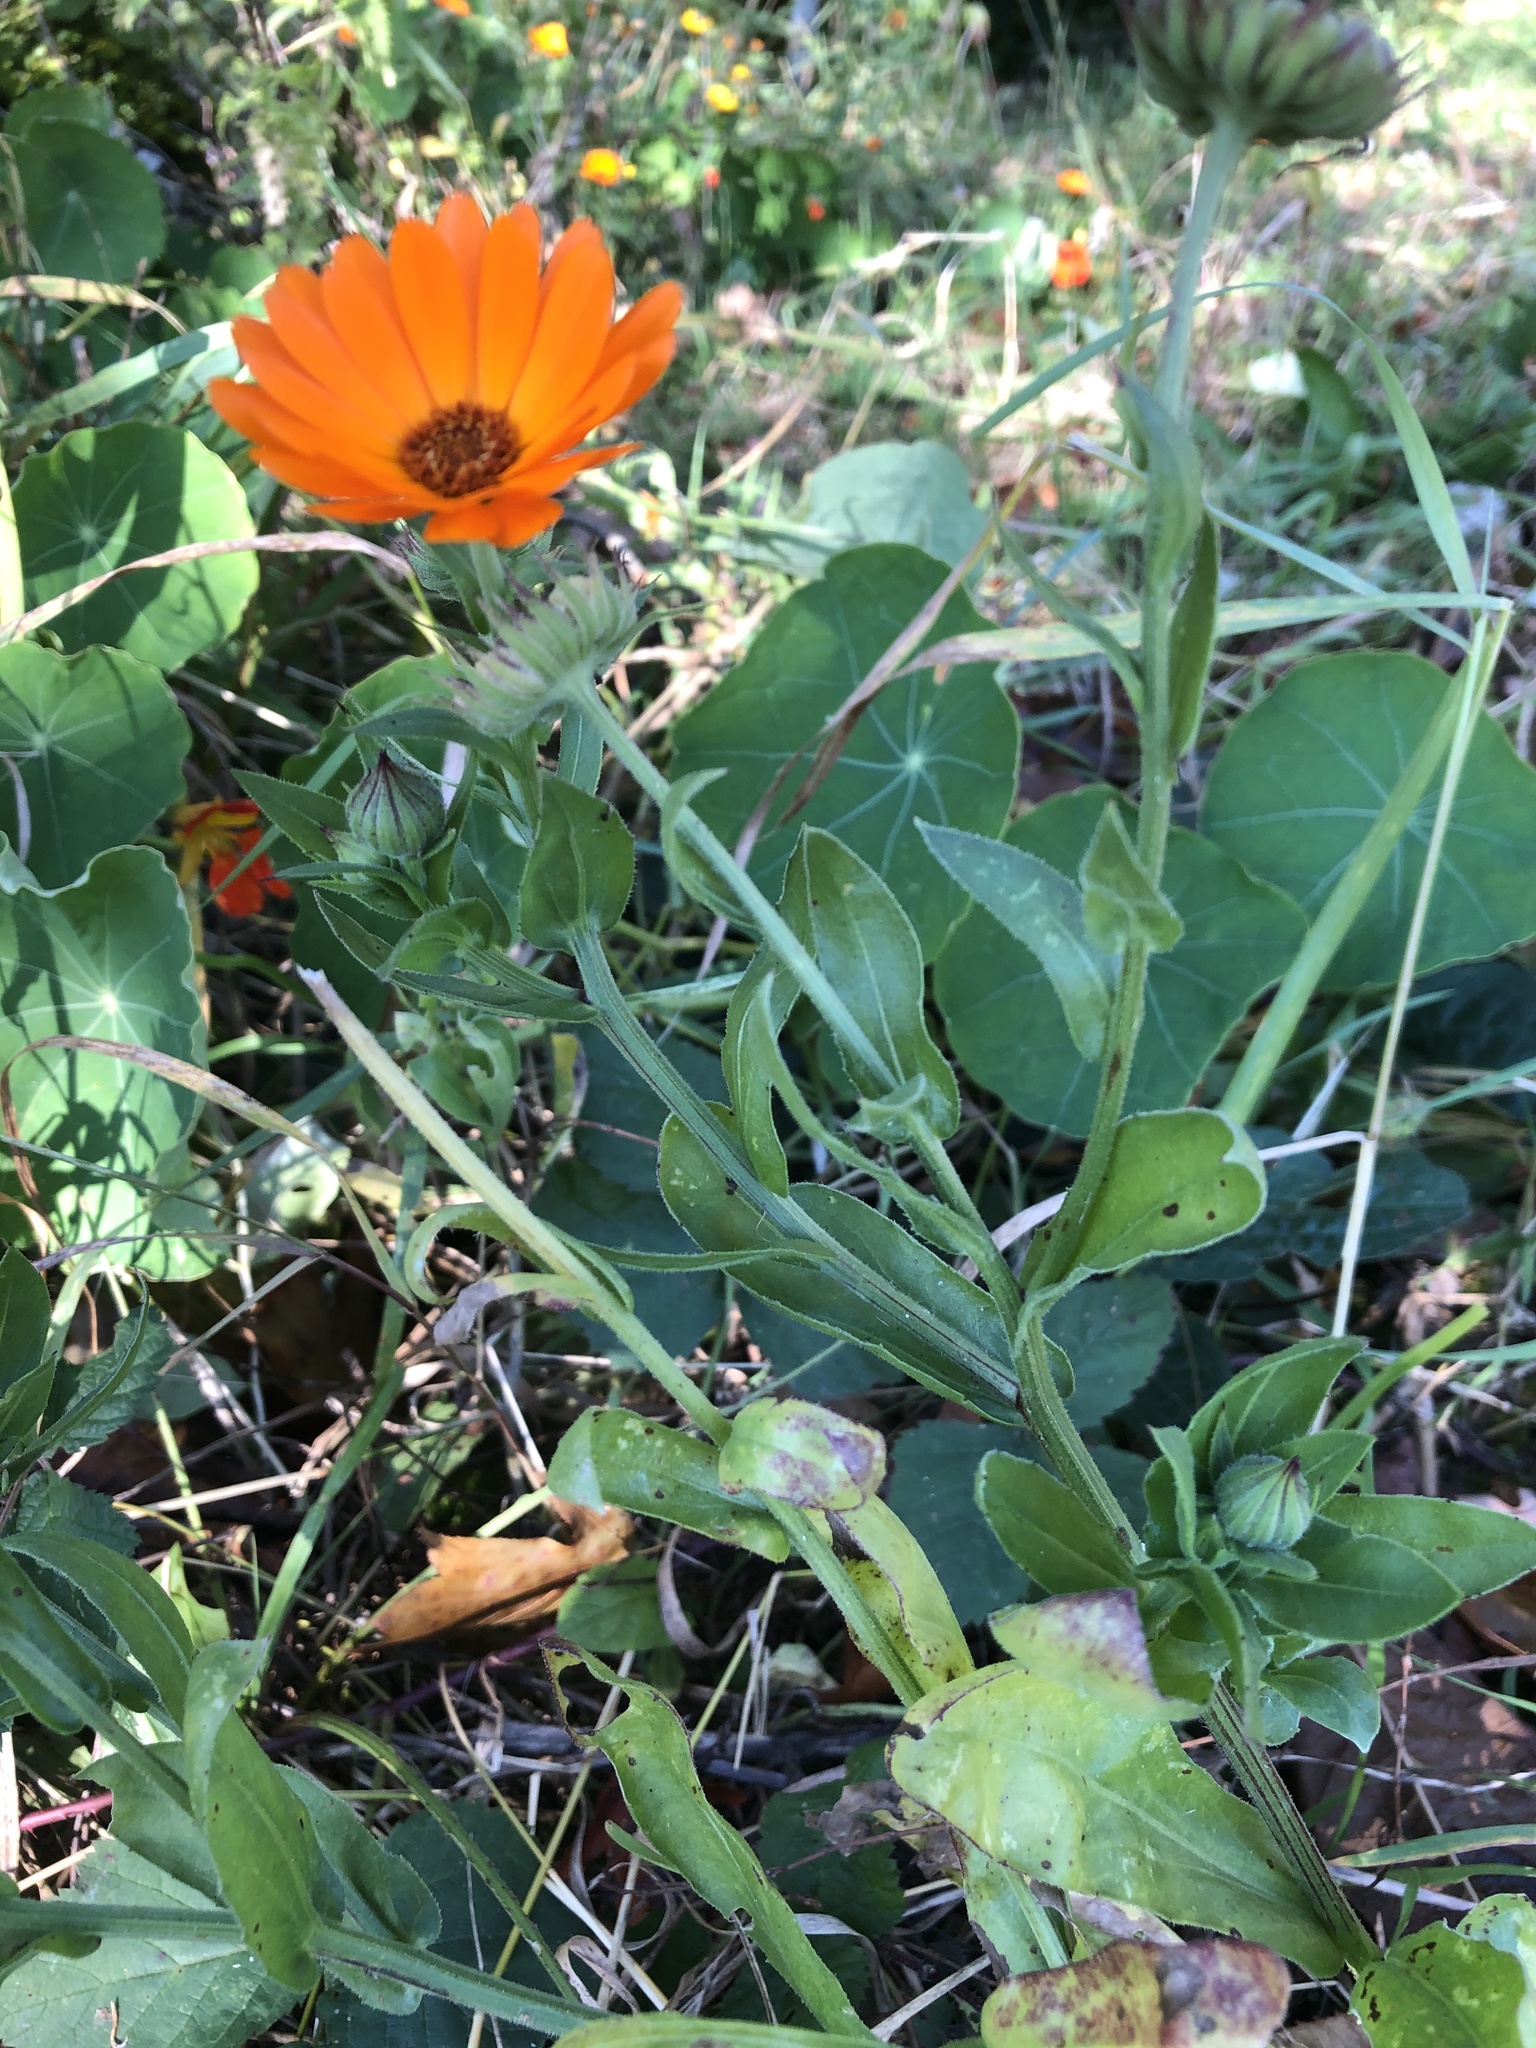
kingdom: Plantae
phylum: Tracheophyta
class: Magnoliopsida
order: Asterales
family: Asteraceae
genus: Calendula
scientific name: Calendula officinalis
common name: Pot marigold
